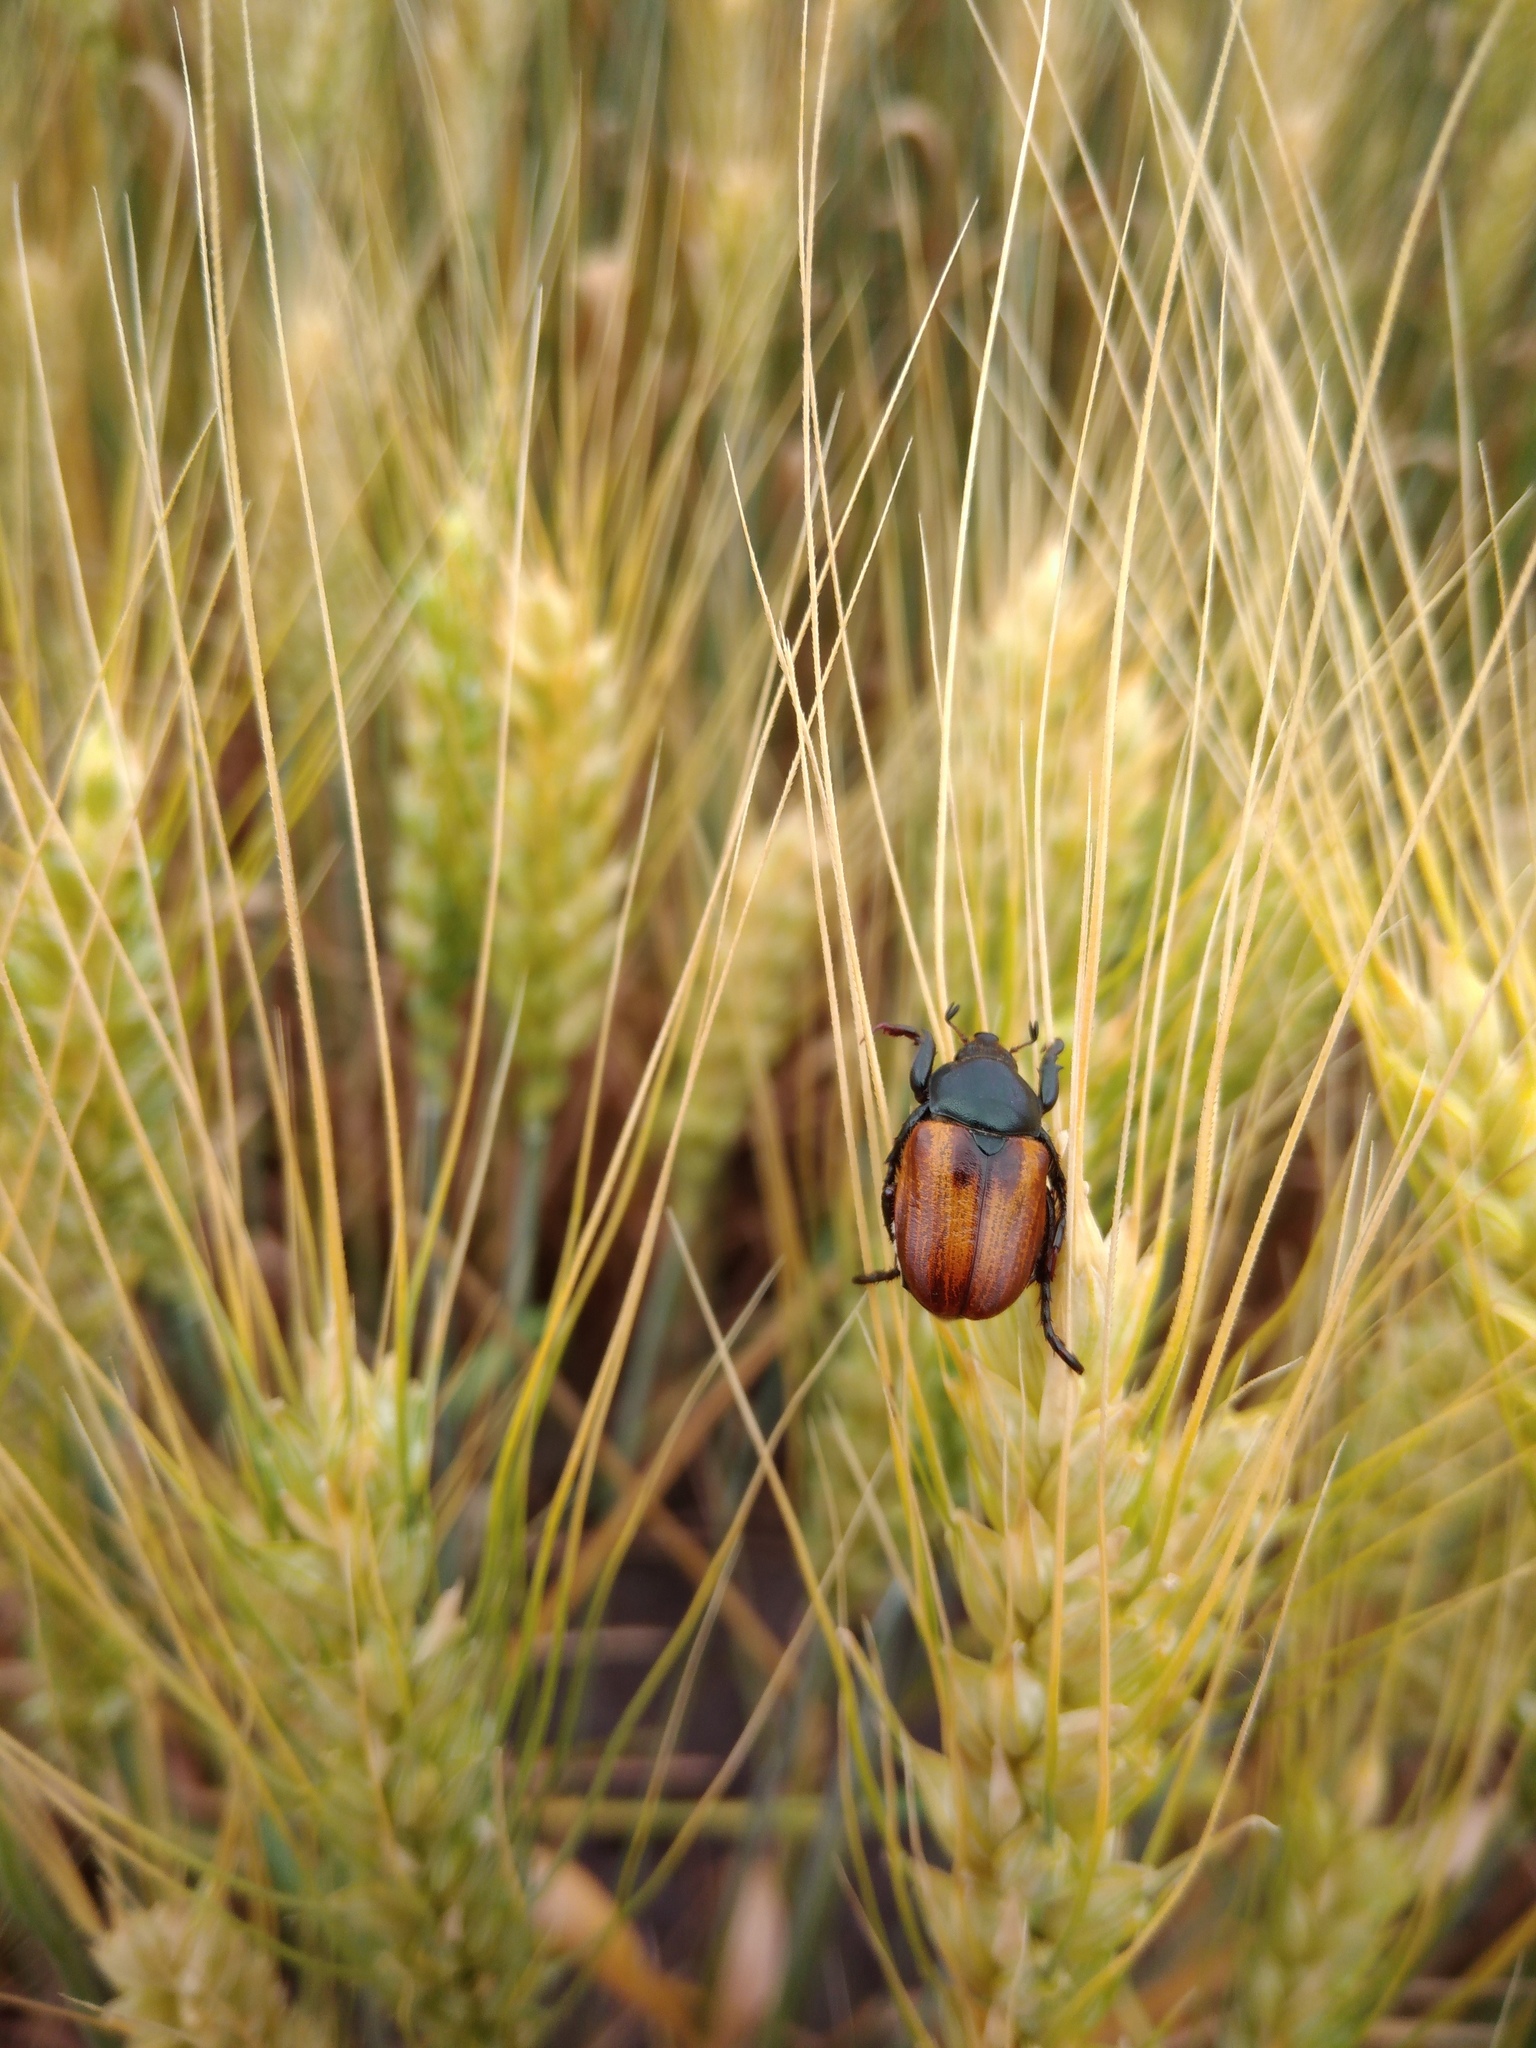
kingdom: Animalia
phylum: Arthropoda
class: Insecta
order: Coleoptera
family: Scarabaeidae
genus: Anisoplia
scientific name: Anisoplia austriaca
